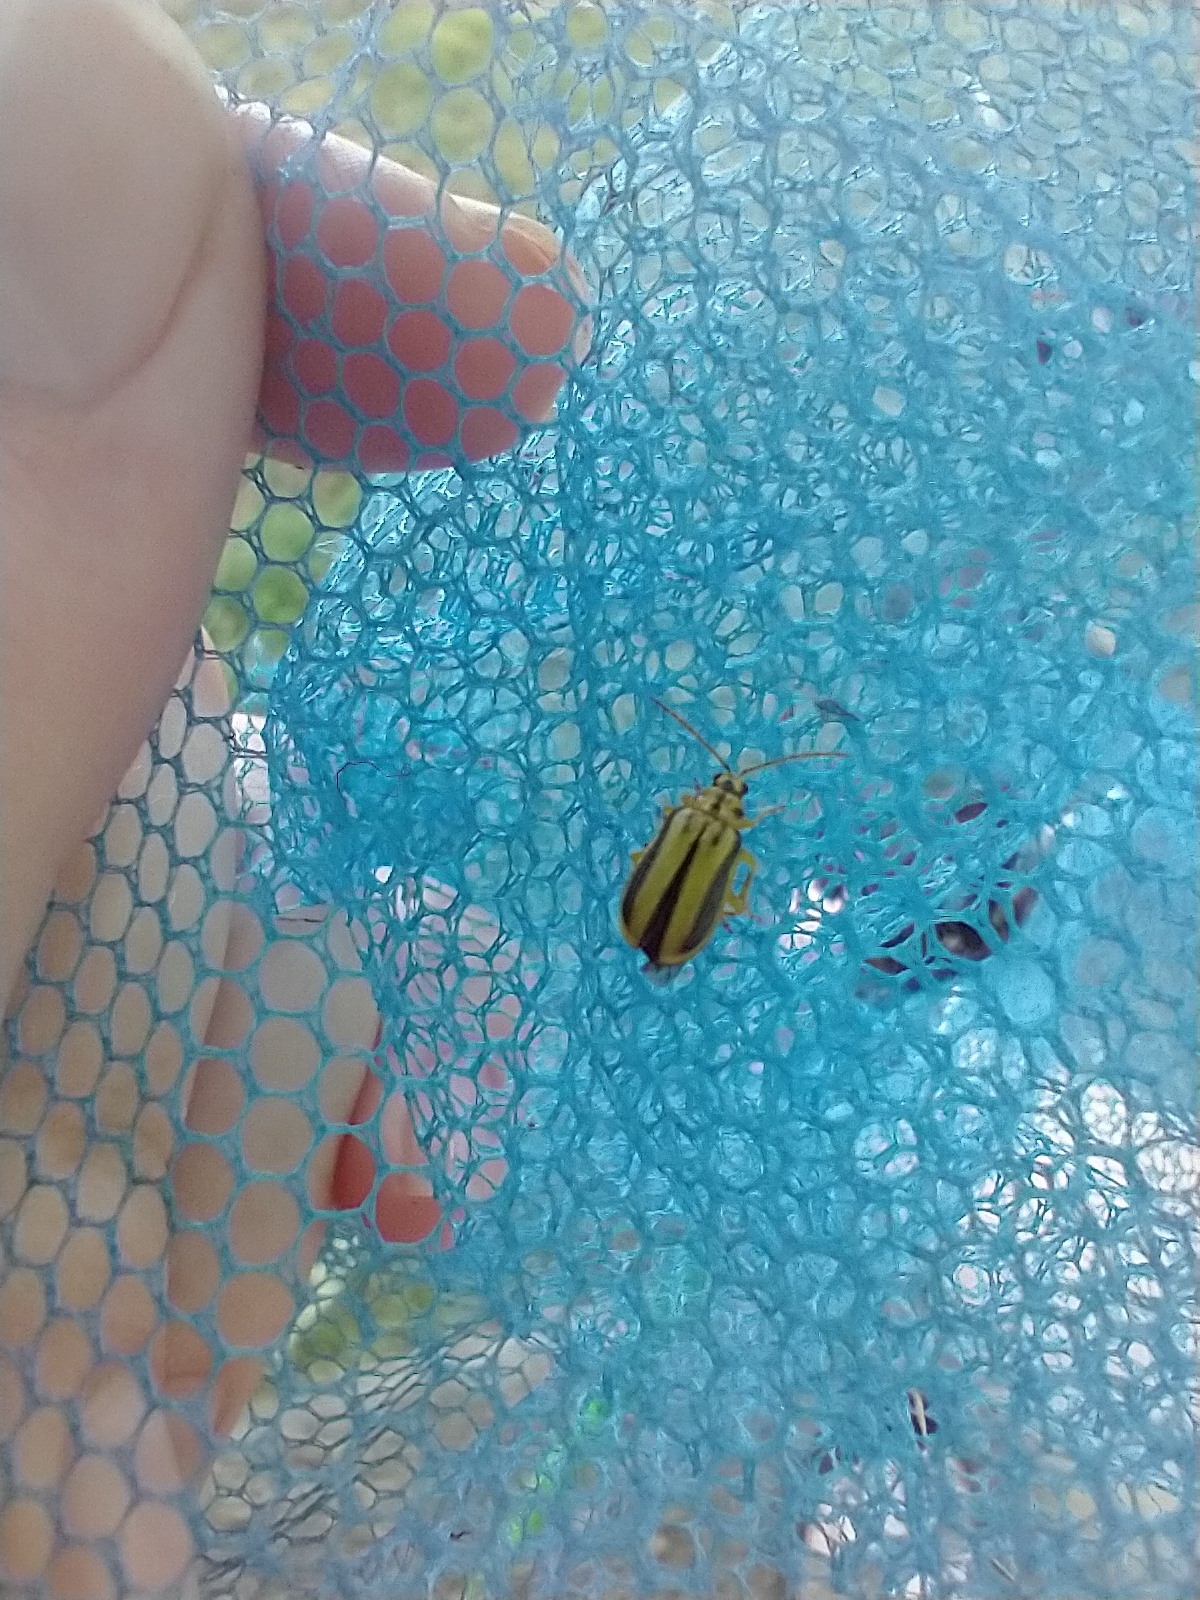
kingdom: Animalia
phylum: Arthropoda
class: Insecta
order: Coleoptera
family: Chrysomelidae
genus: Xanthogaleruca
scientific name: Xanthogaleruca luteola
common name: Elm leaf beetle
